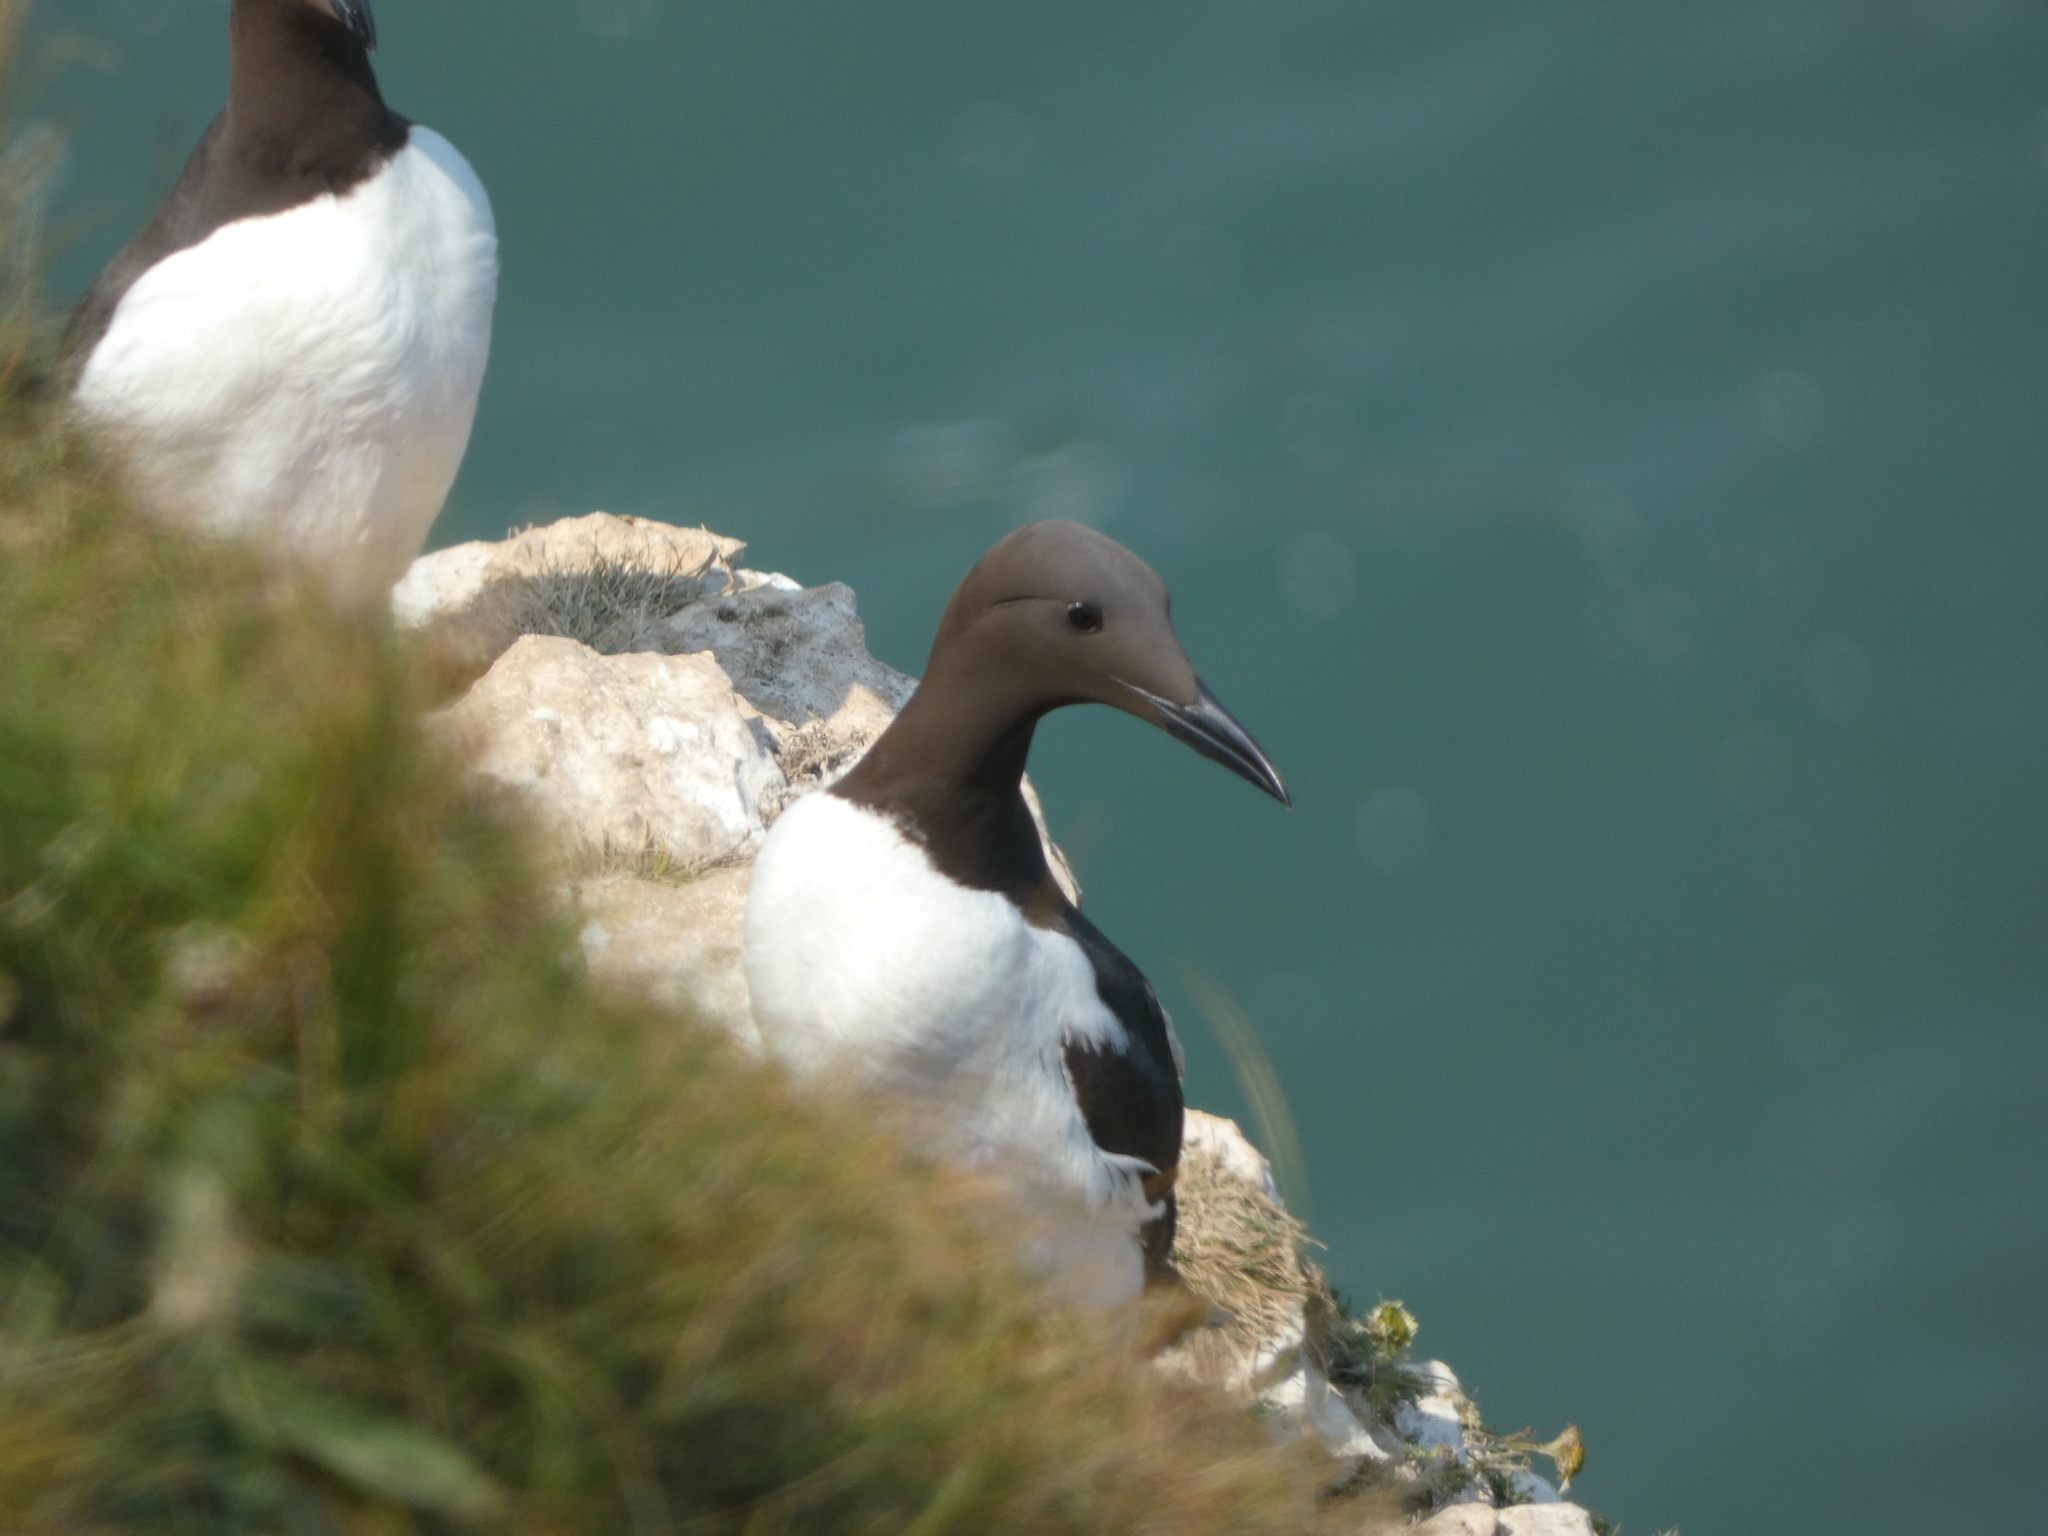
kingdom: Animalia
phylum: Chordata
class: Aves
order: Charadriiformes
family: Alcidae
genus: Uria
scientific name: Uria aalge
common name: Common murre
